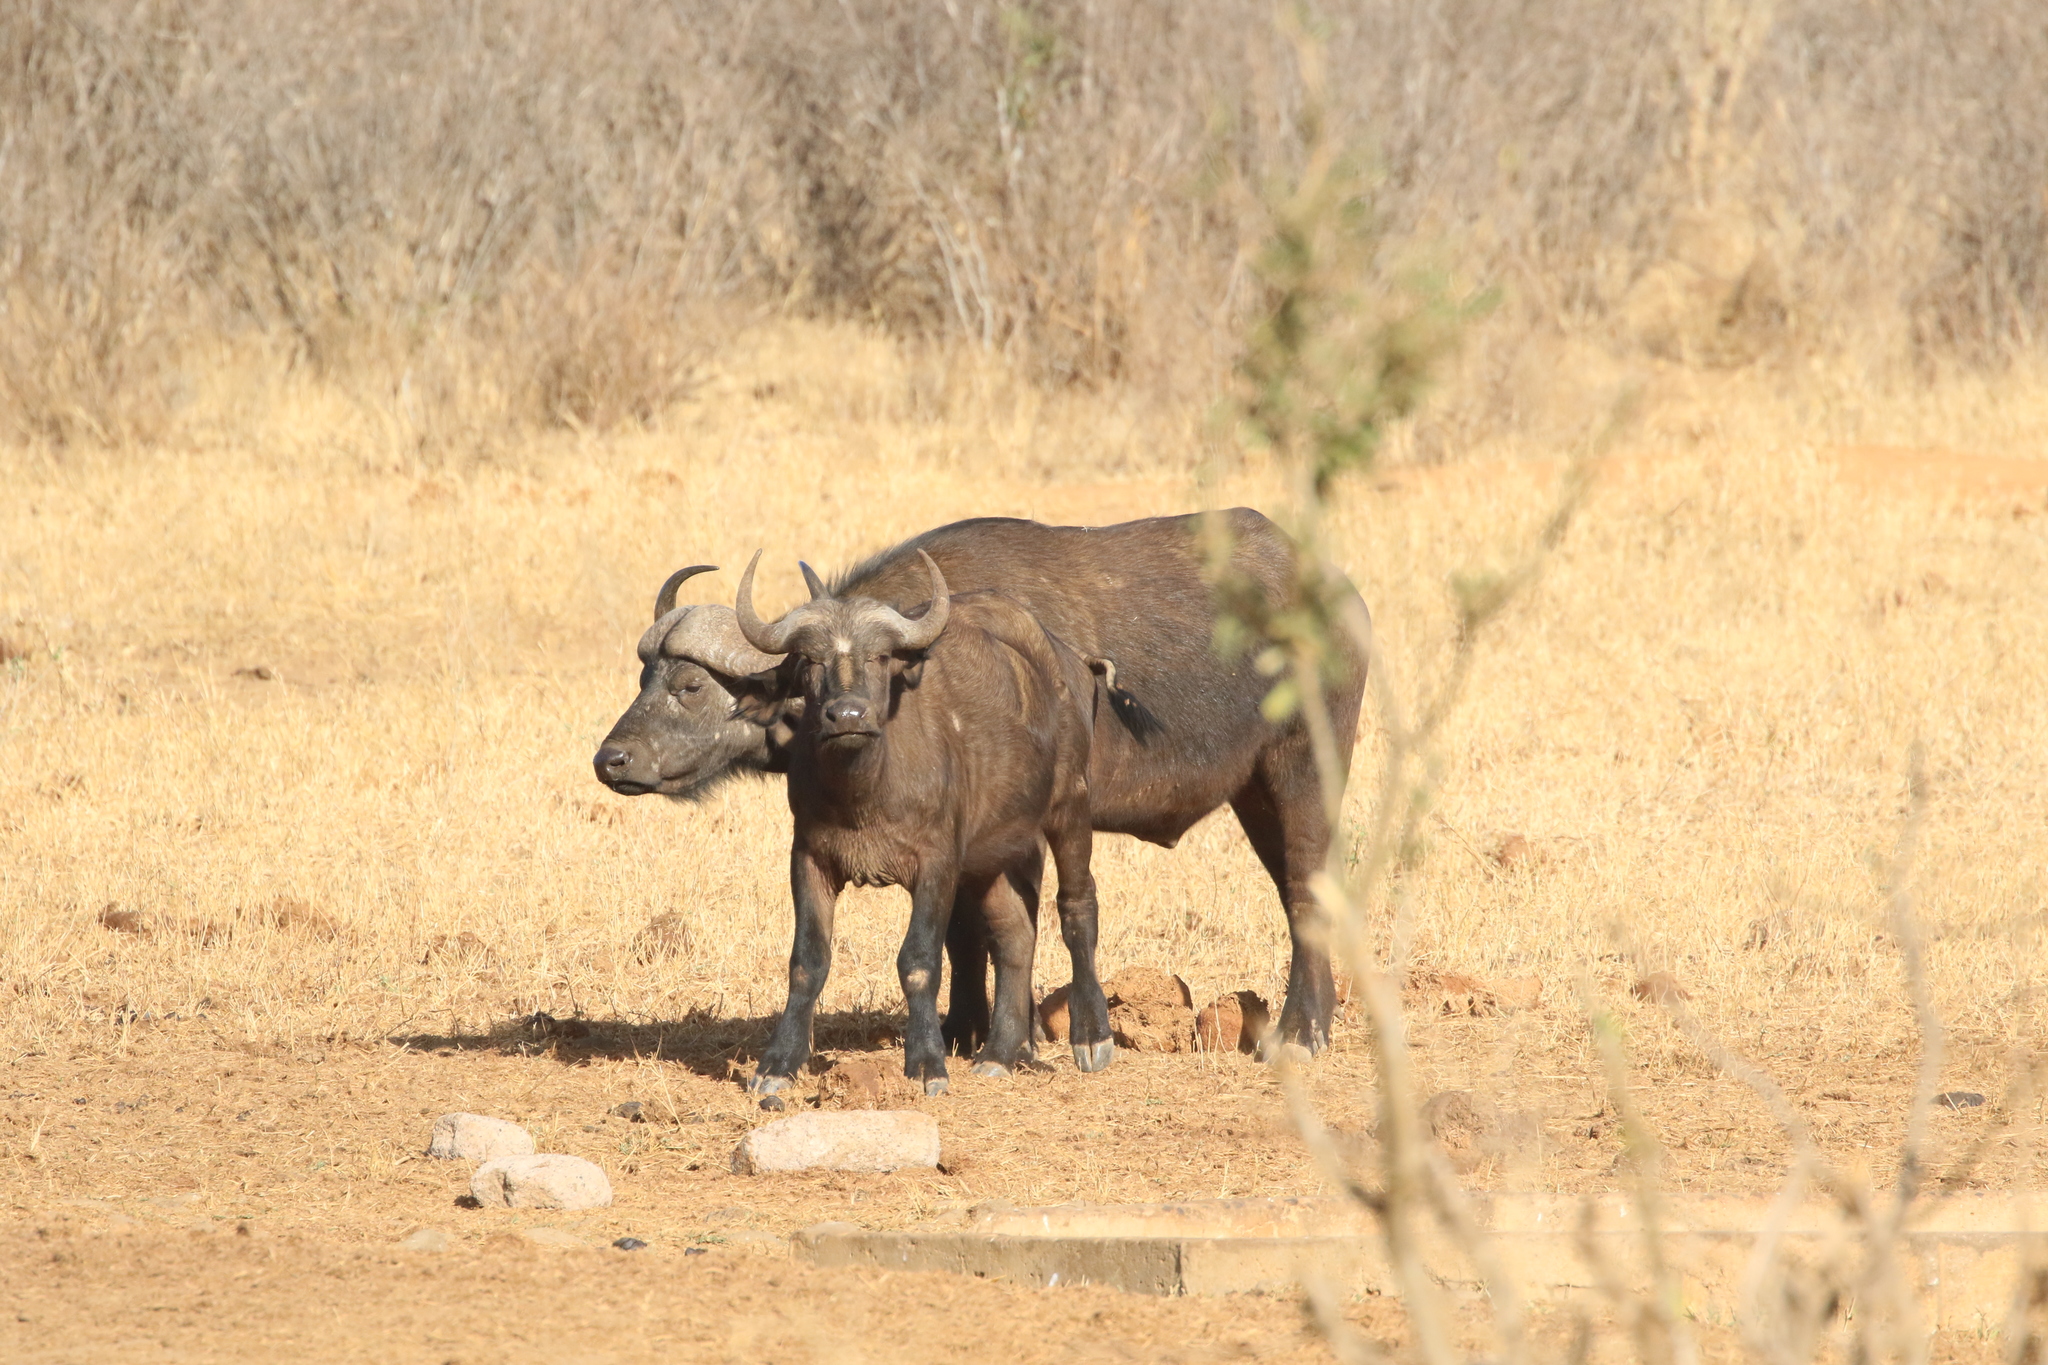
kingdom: Animalia
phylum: Chordata
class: Mammalia
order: Artiodactyla
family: Bovidae
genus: Syncerus
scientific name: Syncerus caffer
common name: African buffalo
